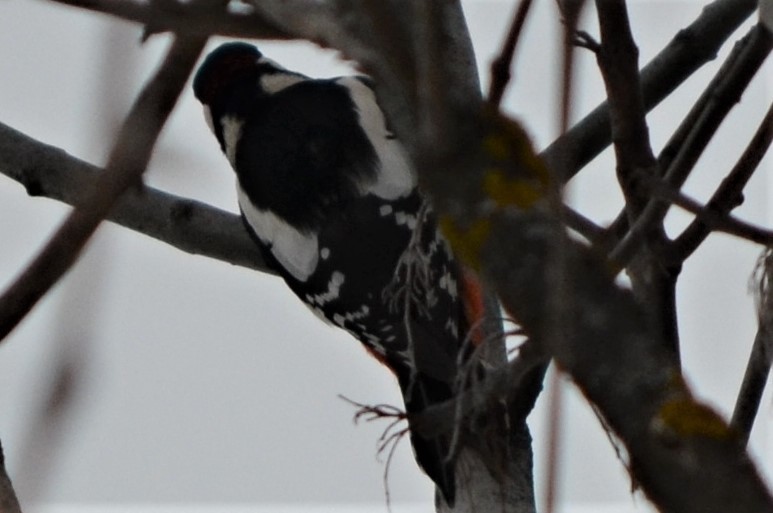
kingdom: Animalia
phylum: Chordata
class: Aves
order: Piciformes
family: Picidae
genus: Dendrocopos
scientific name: Dendrocopos major
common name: Great spotted woodpecker
